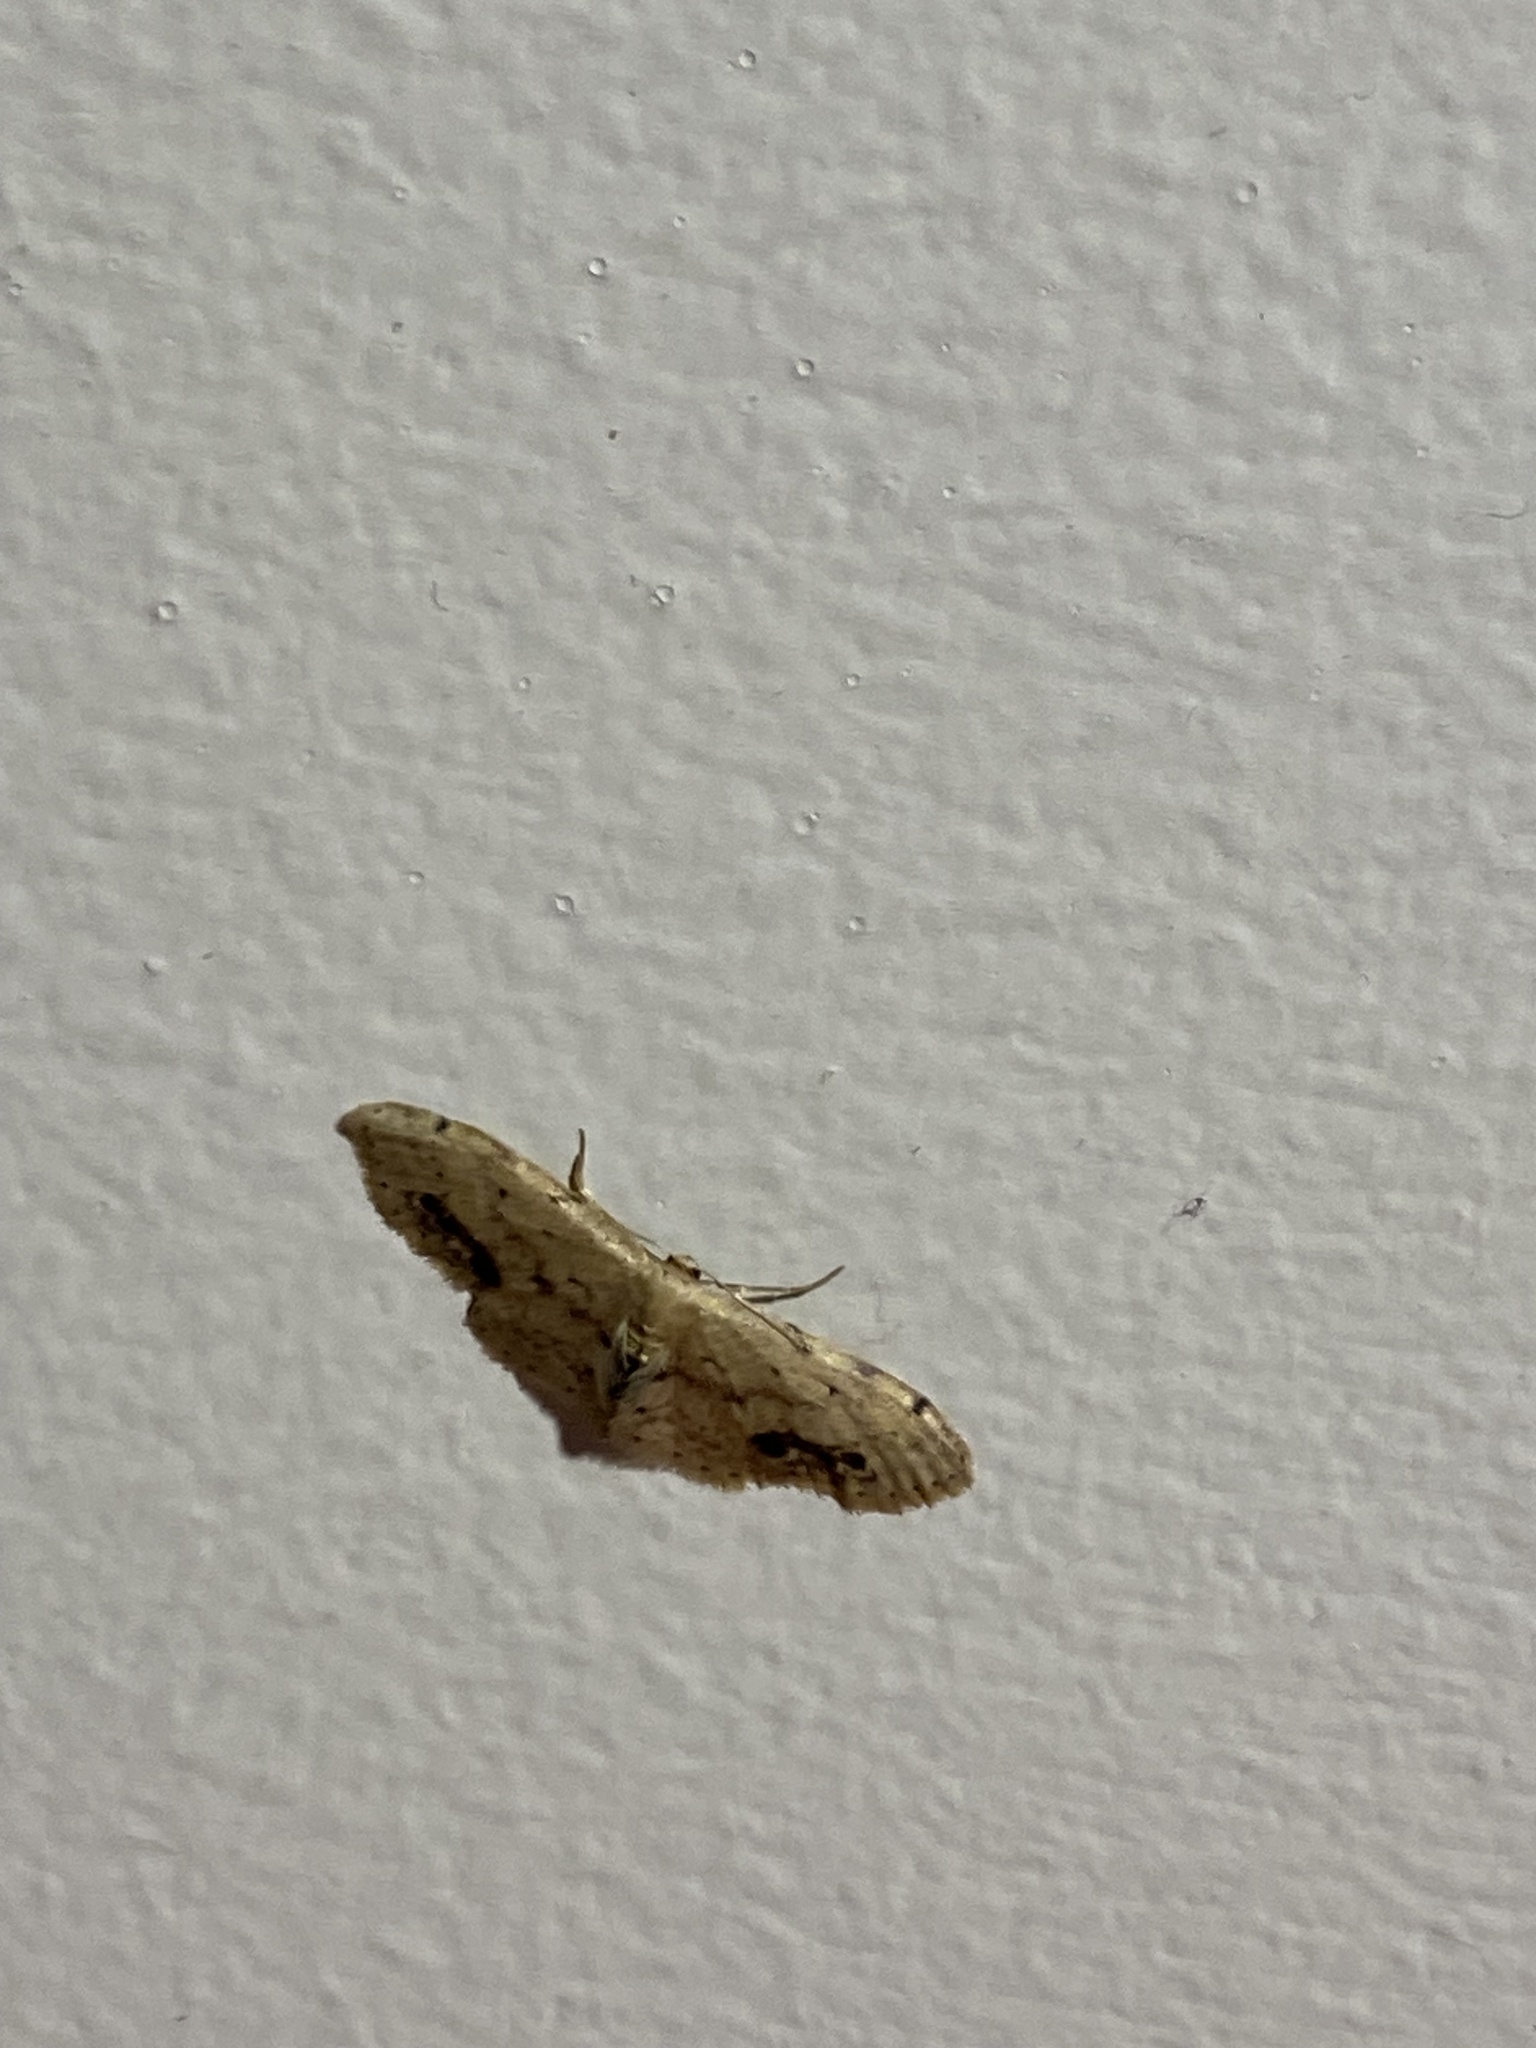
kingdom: Animalia
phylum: Arthropoda
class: Insecta
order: Lepidoptera
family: Geometridae
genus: Idaea
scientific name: Idaea dimidiata
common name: Single-dotted wave
